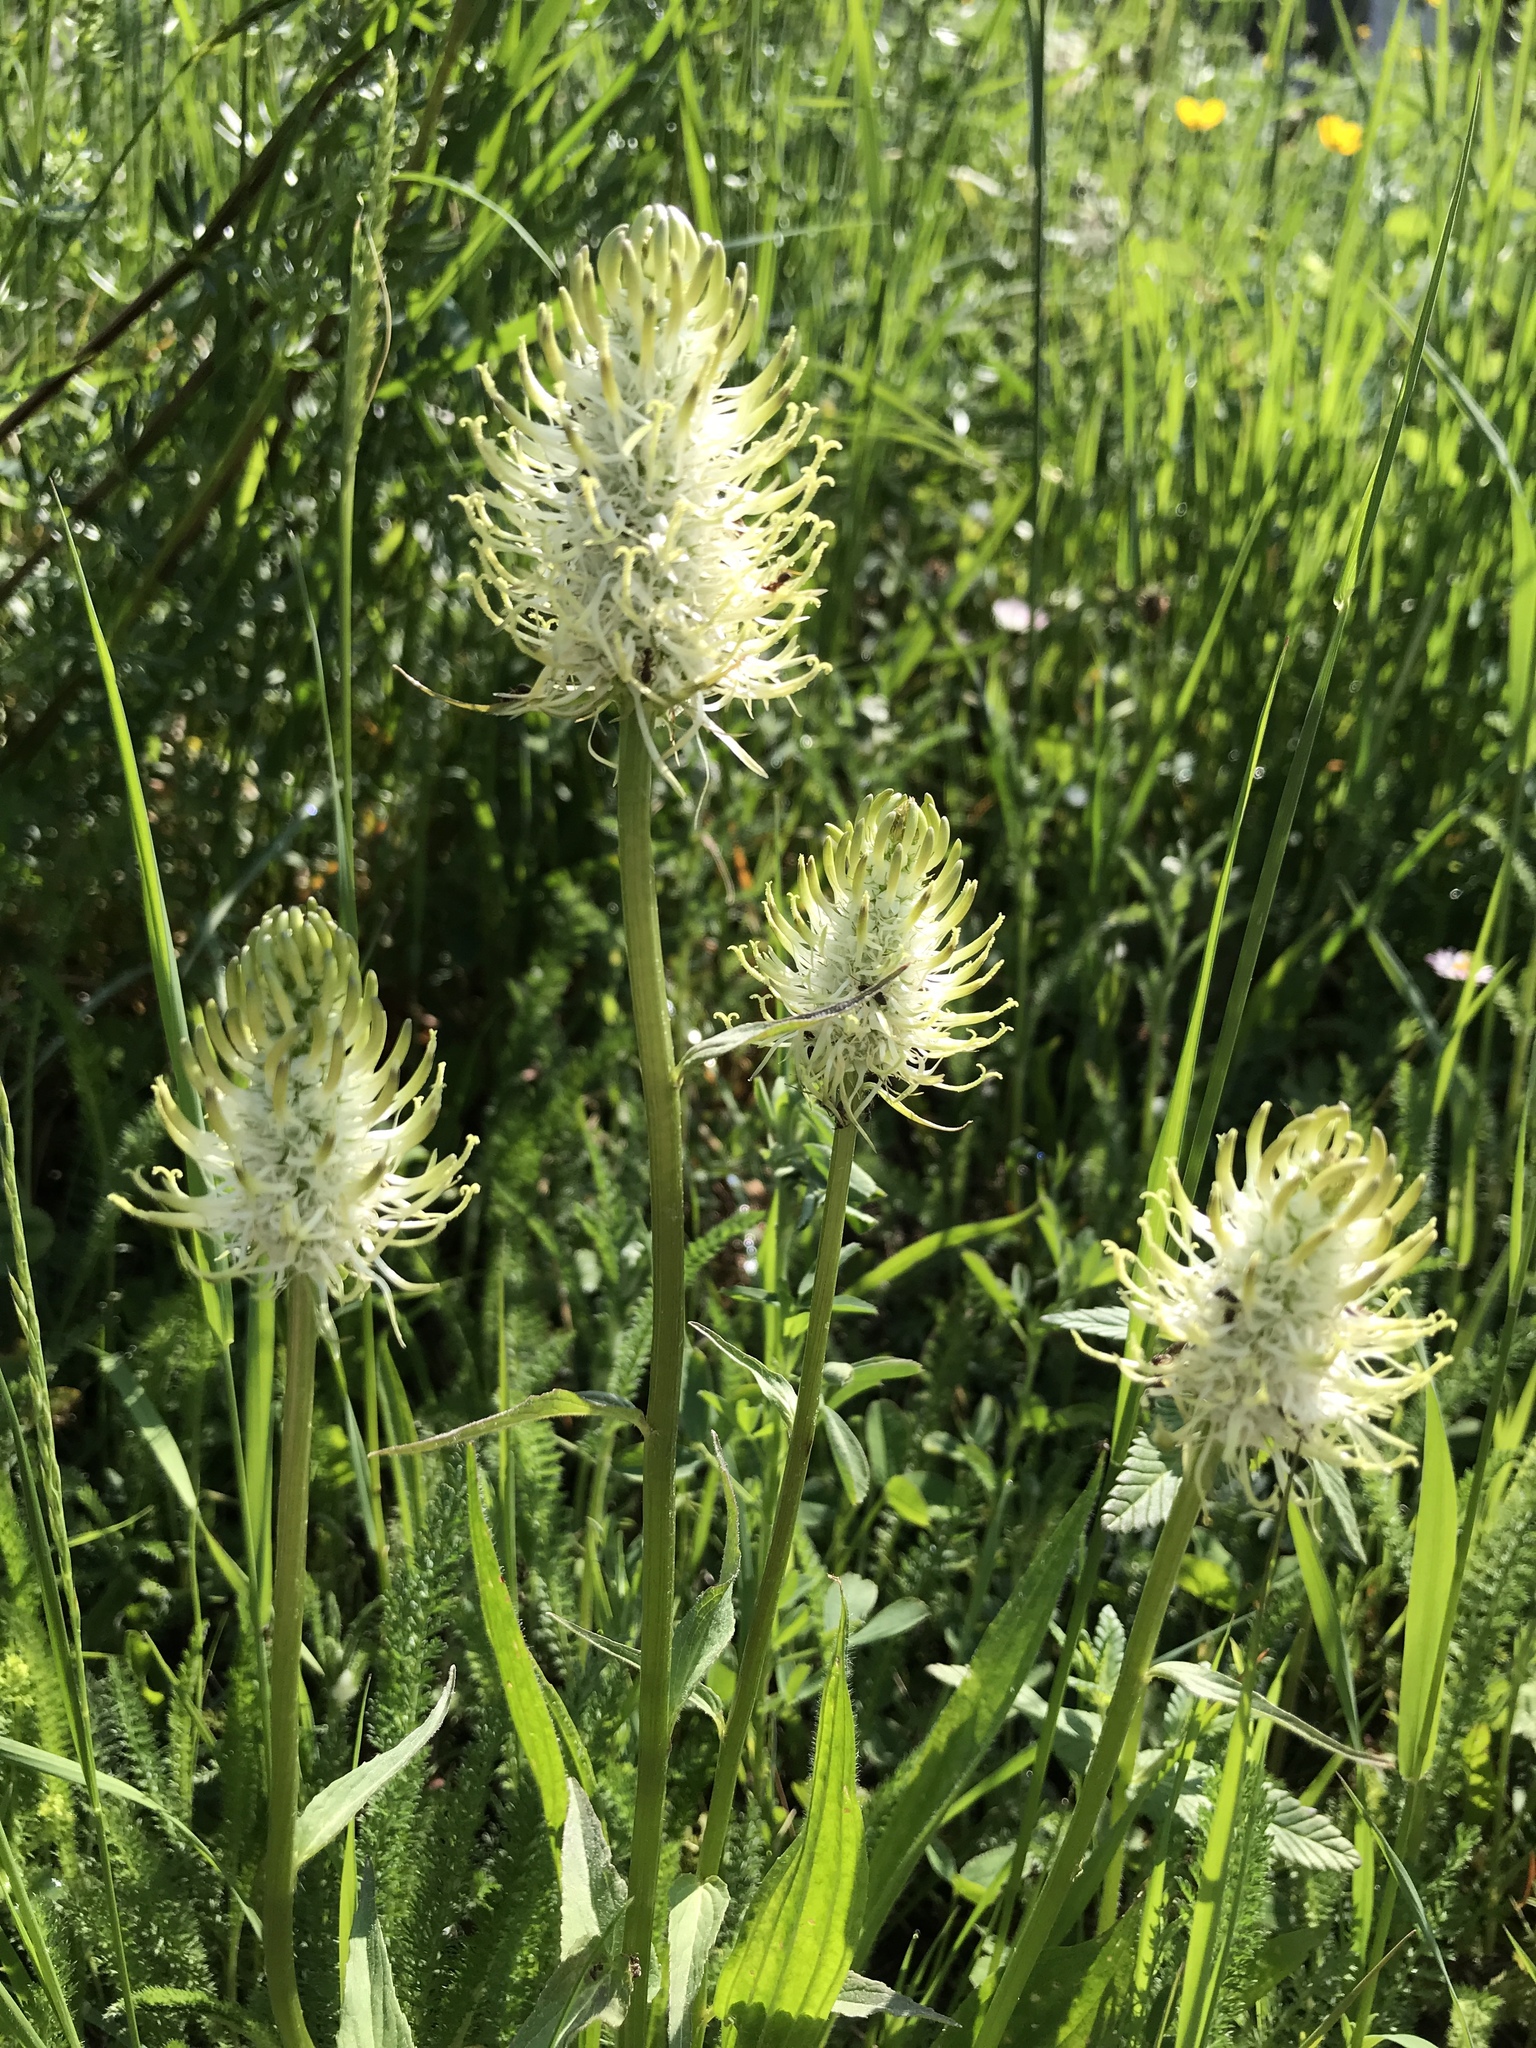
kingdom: Plantae
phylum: Tracheophyta
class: Magnoliopsida
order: Asterales
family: Campanulaceae
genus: Phyteuma
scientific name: Phyteuma spicatum
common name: Spiked rampion
